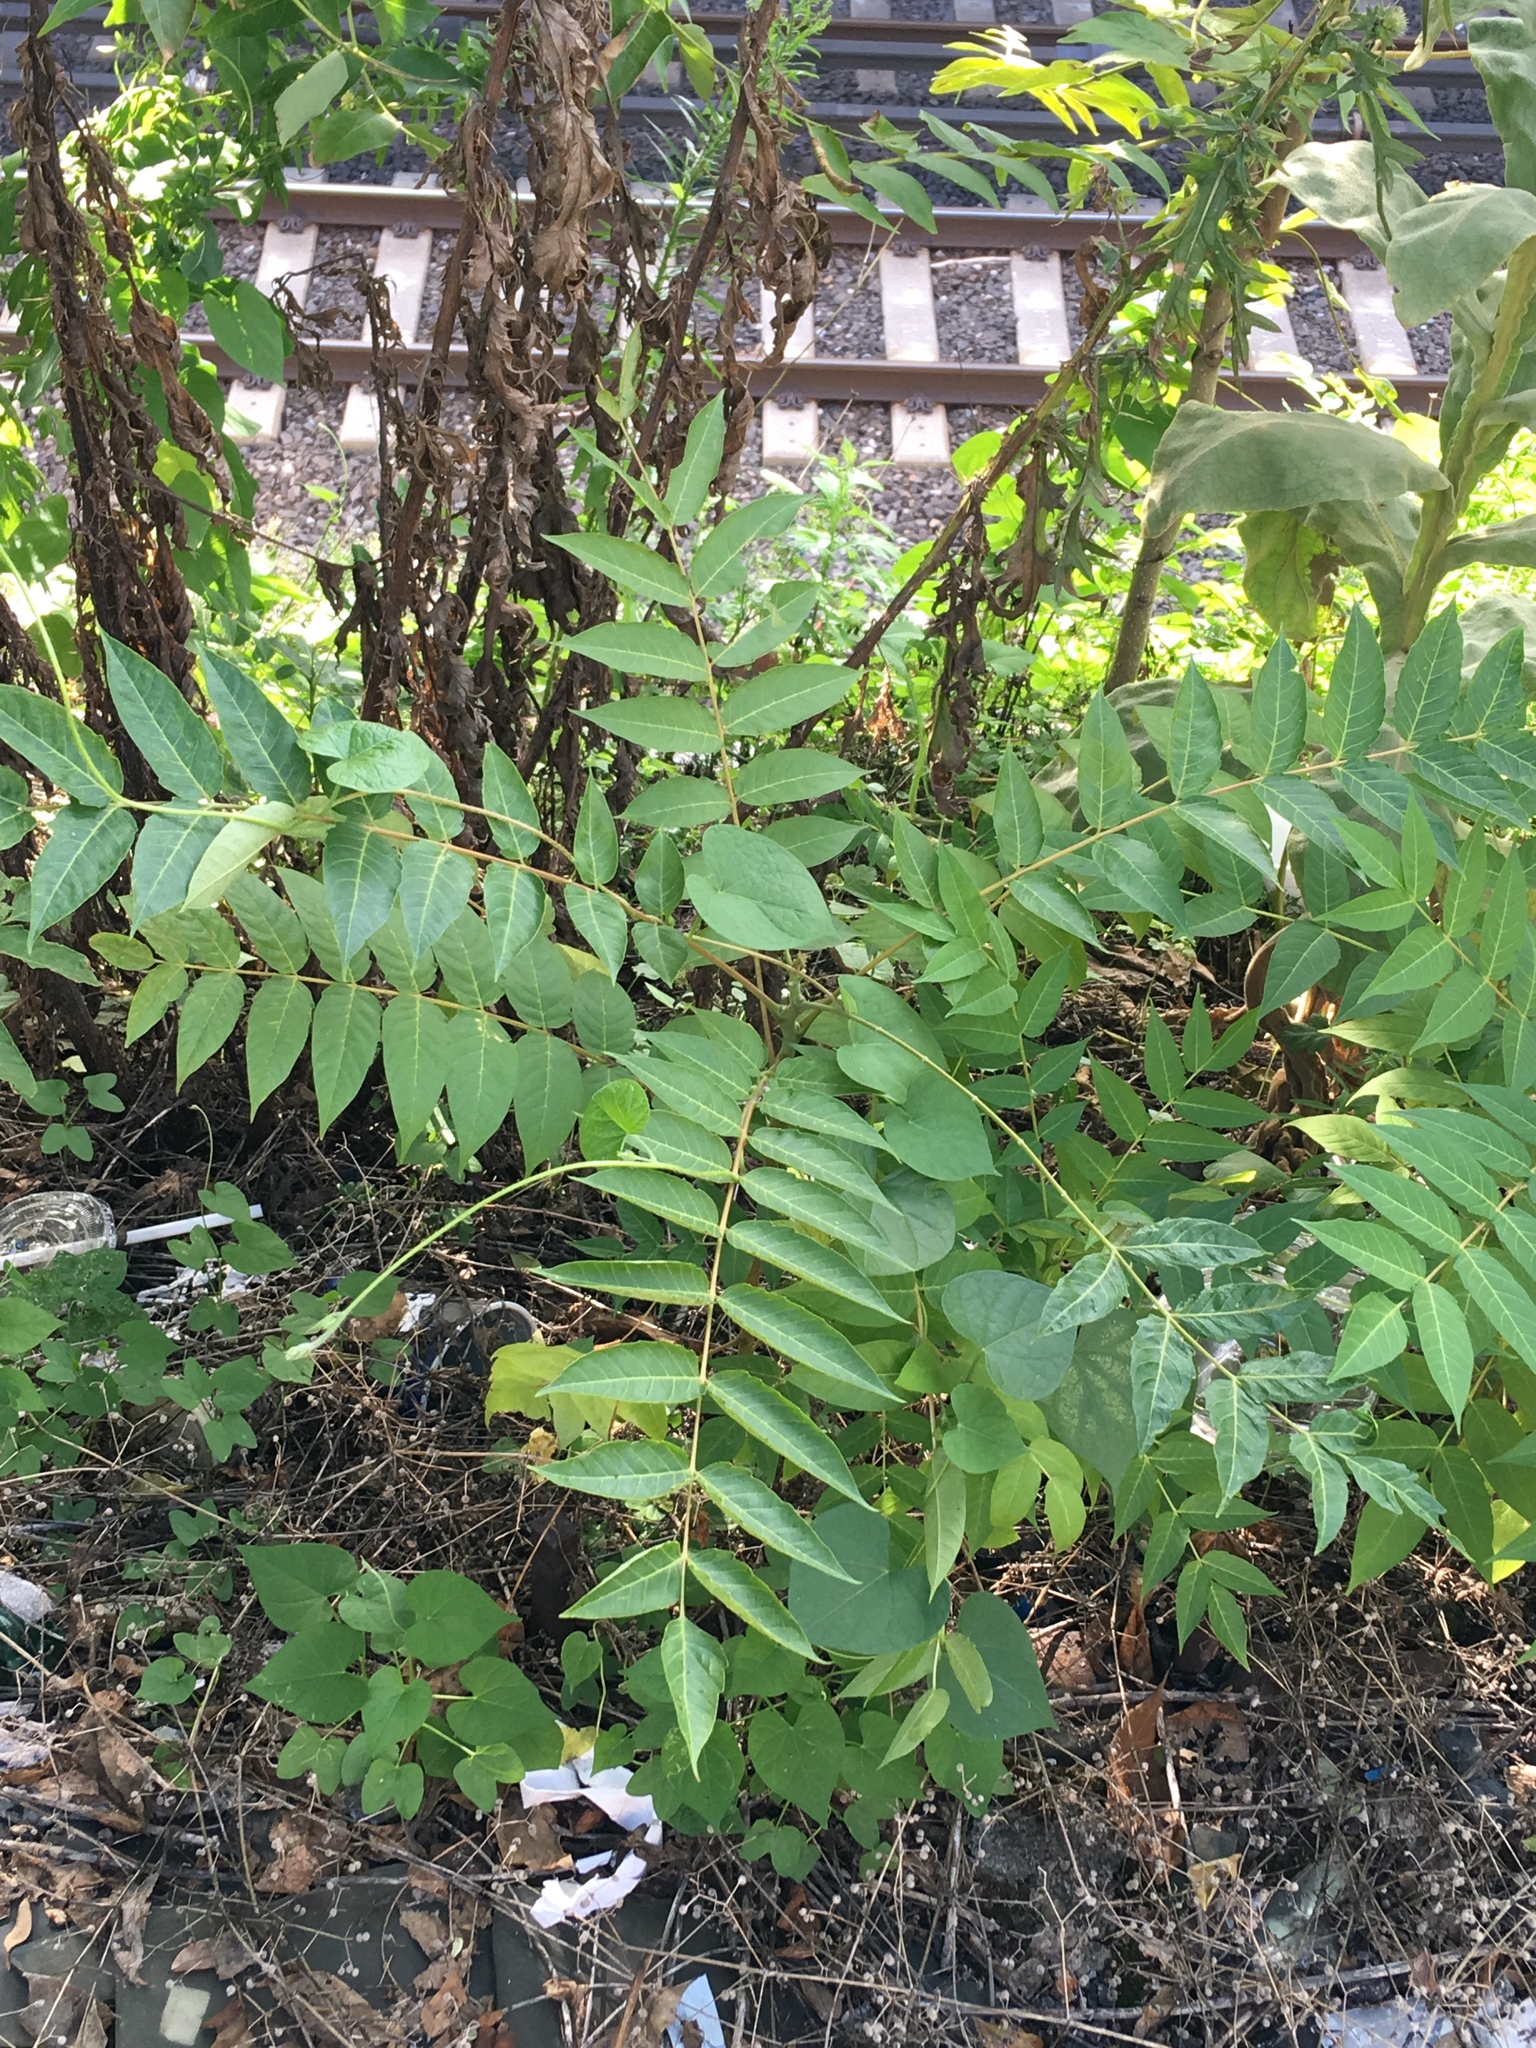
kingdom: Plantae
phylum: Tracheophyta
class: Magnoliopsida
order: Sapindales
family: Simaroubaceae
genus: Ailanthus
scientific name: Ailanthus altissima
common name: Tree-of-heaven
